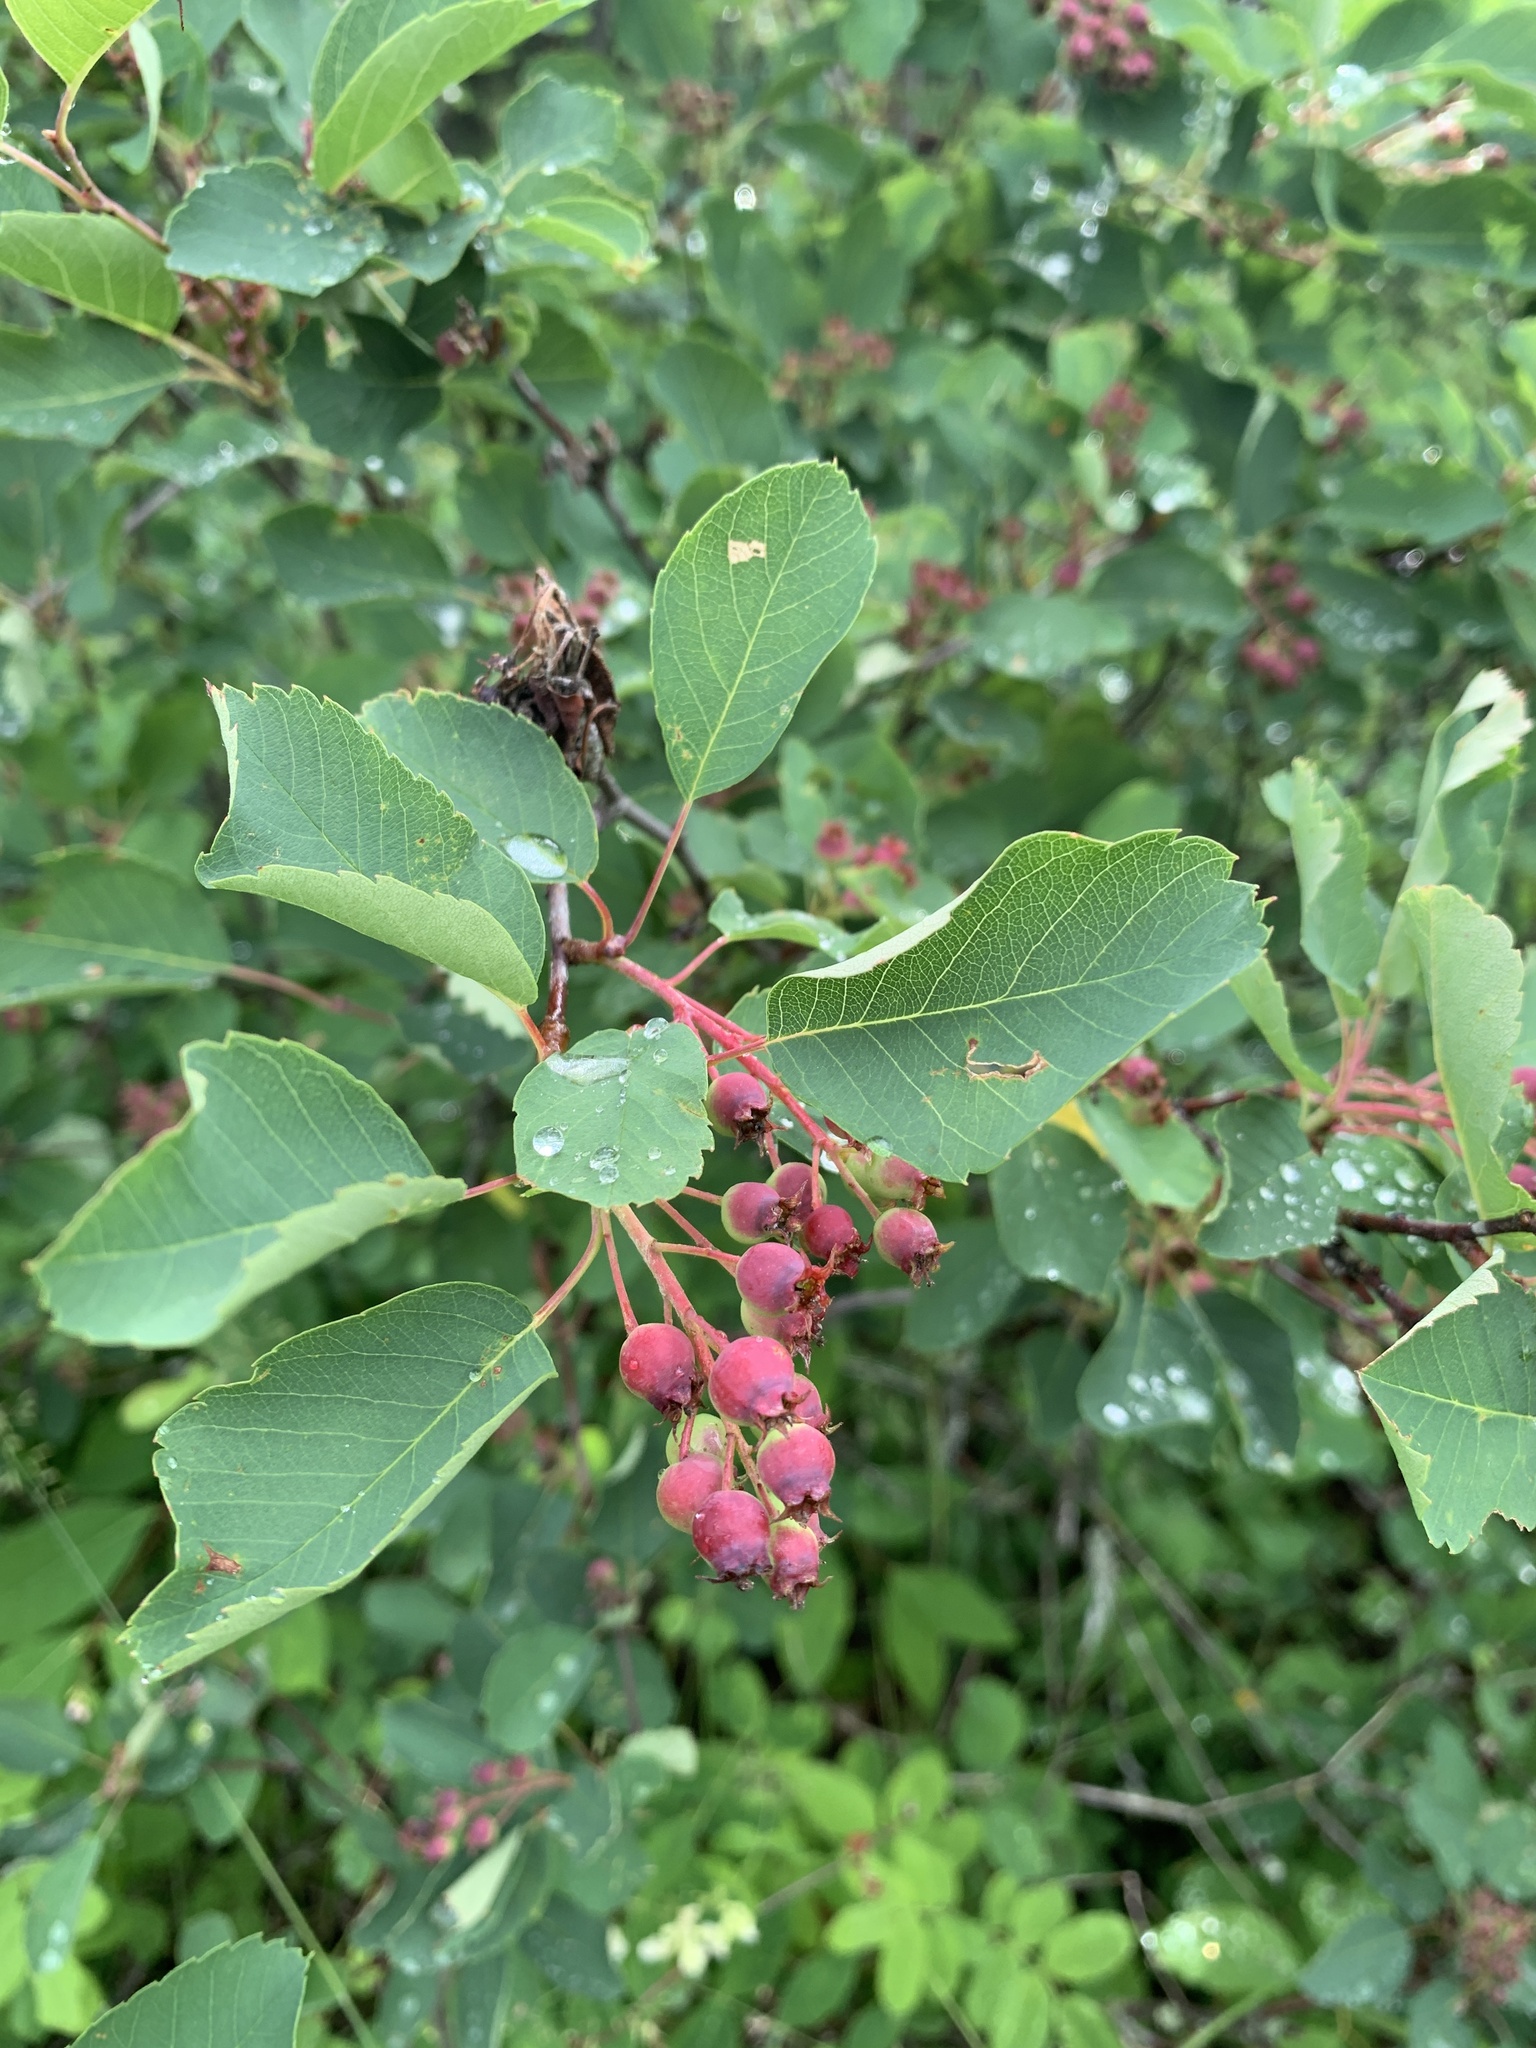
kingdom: Plantae
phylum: Tracheophyta
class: Magnoliopsida
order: Rosales
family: Rosaceae
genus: Amelanchier
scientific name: Amelanchier alnifolia
